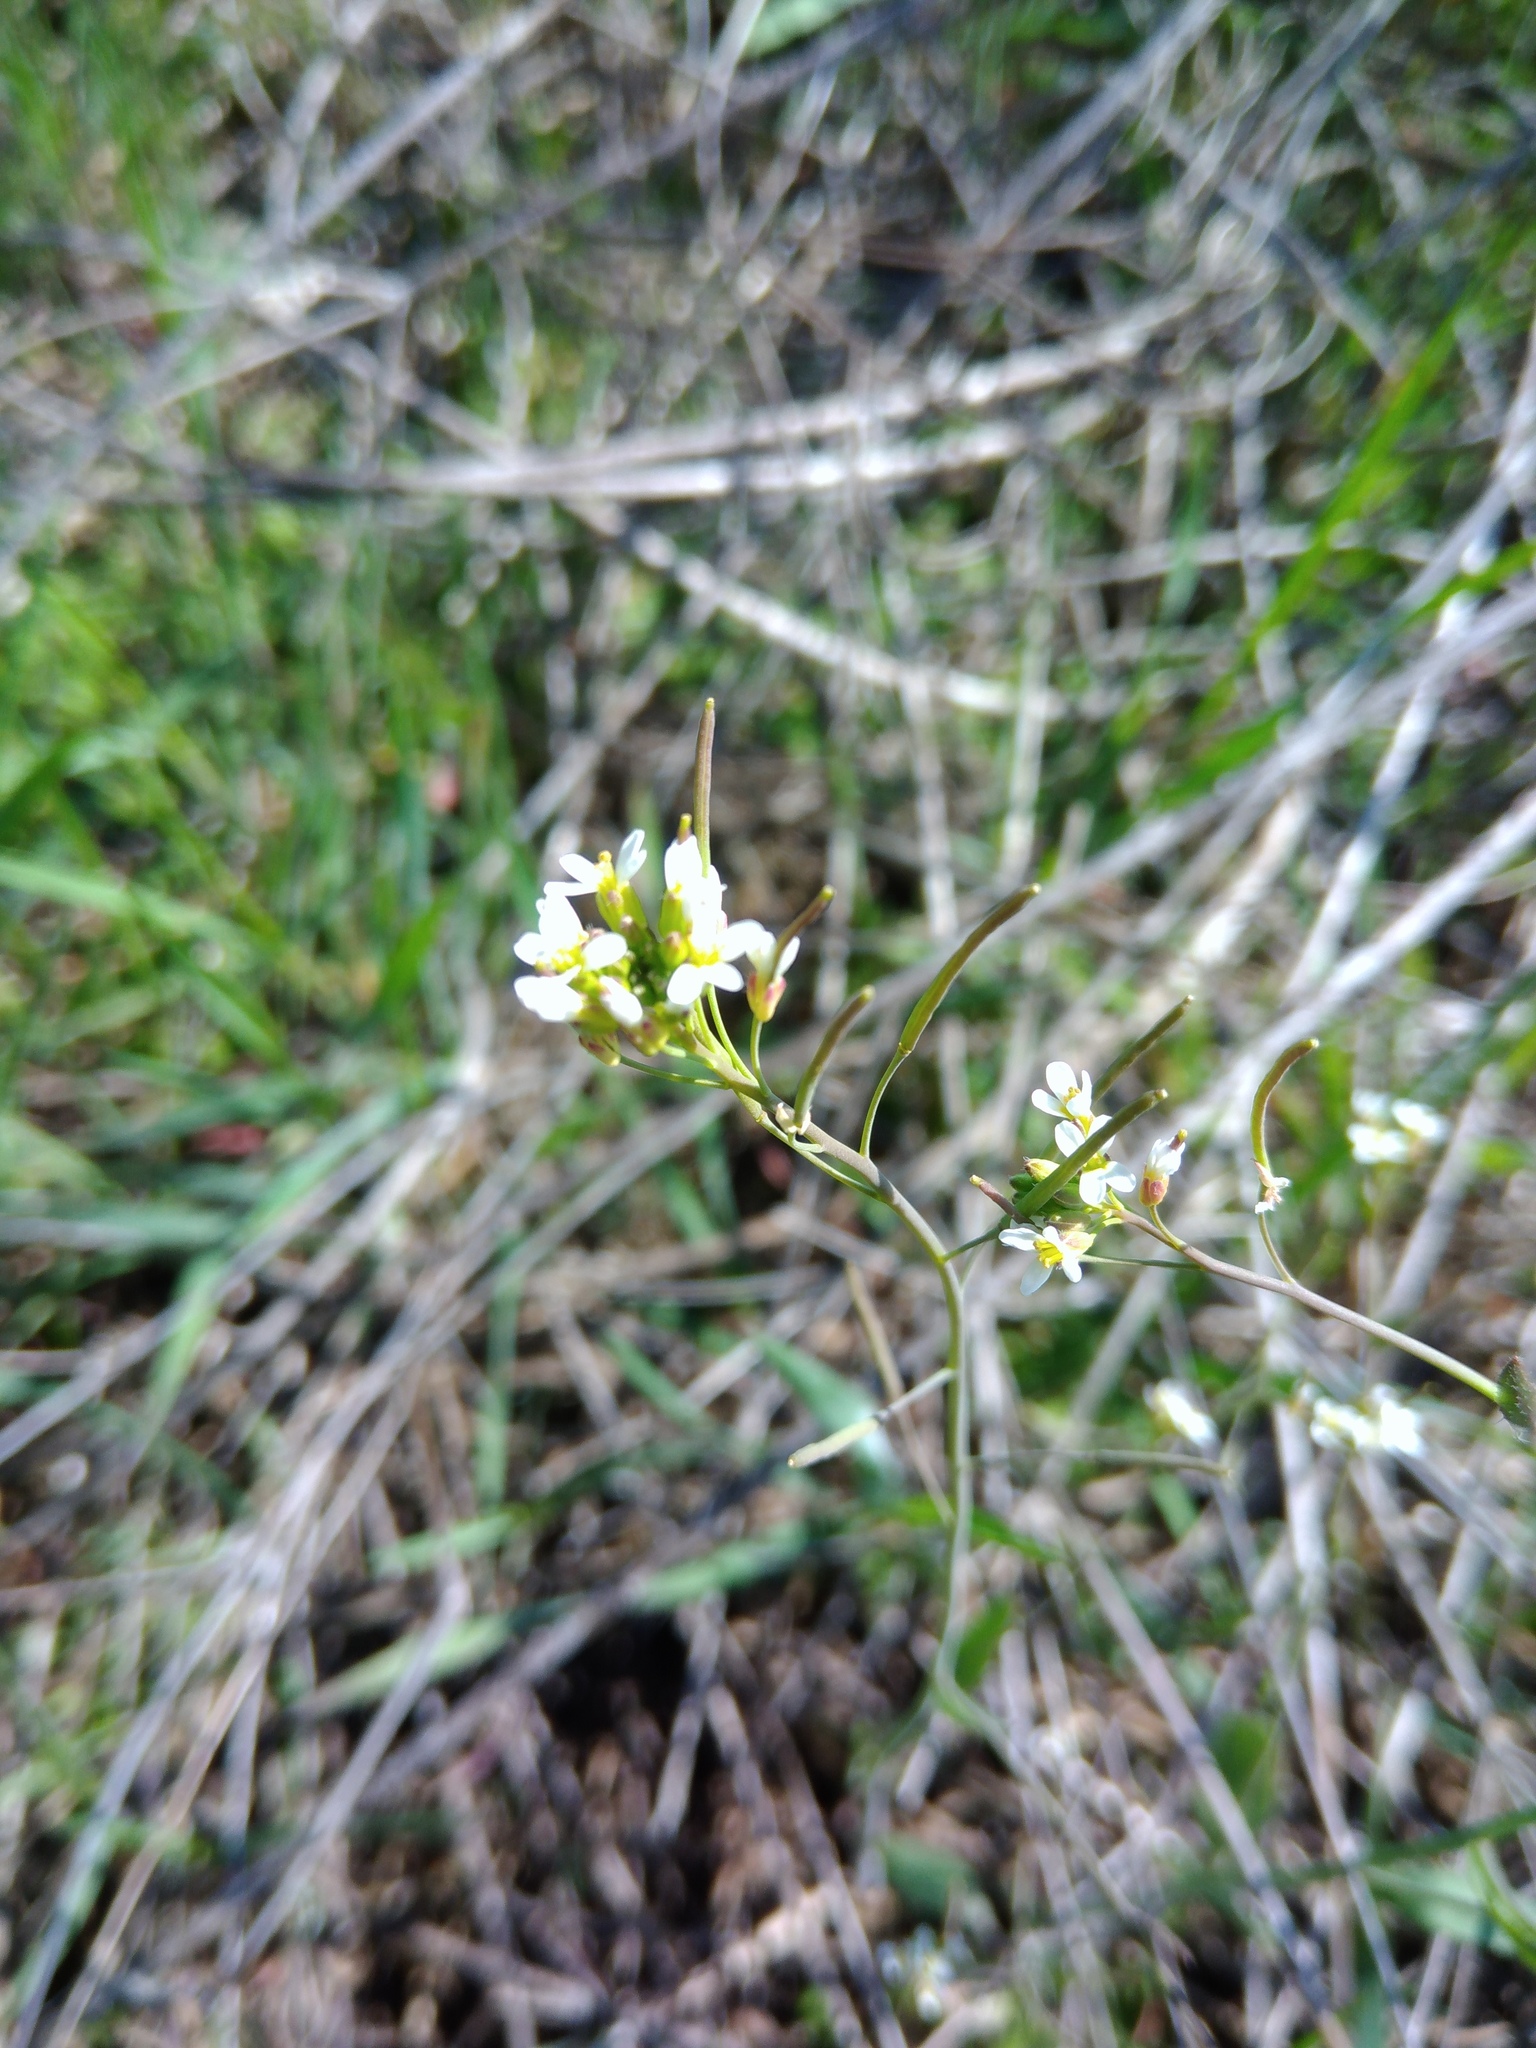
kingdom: Plantae
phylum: Tracheophyta
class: Magnoliopsida
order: Brassicales
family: Brassicaceae
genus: Arabidopsis
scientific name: Arabidopsis thaliana
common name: Thale cress
